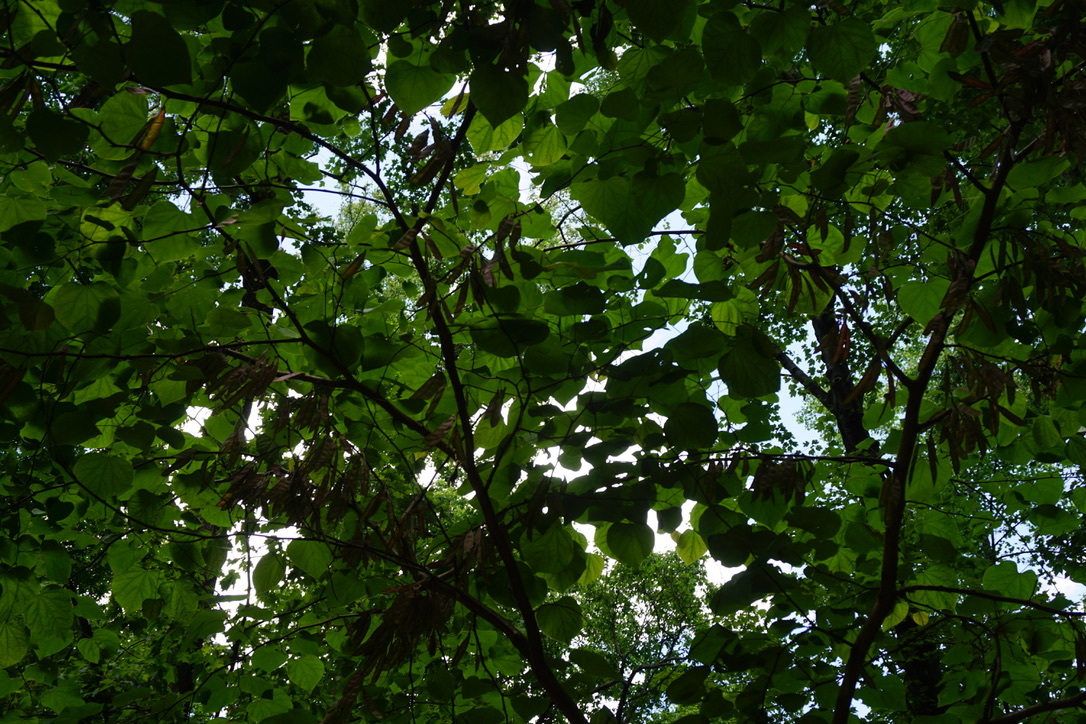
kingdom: Plantae
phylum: Tracheophyta
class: Magnoliopsida
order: Fabales
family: Fabaceae
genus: Cercis
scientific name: Cercis canadensis
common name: Eastern redbud
